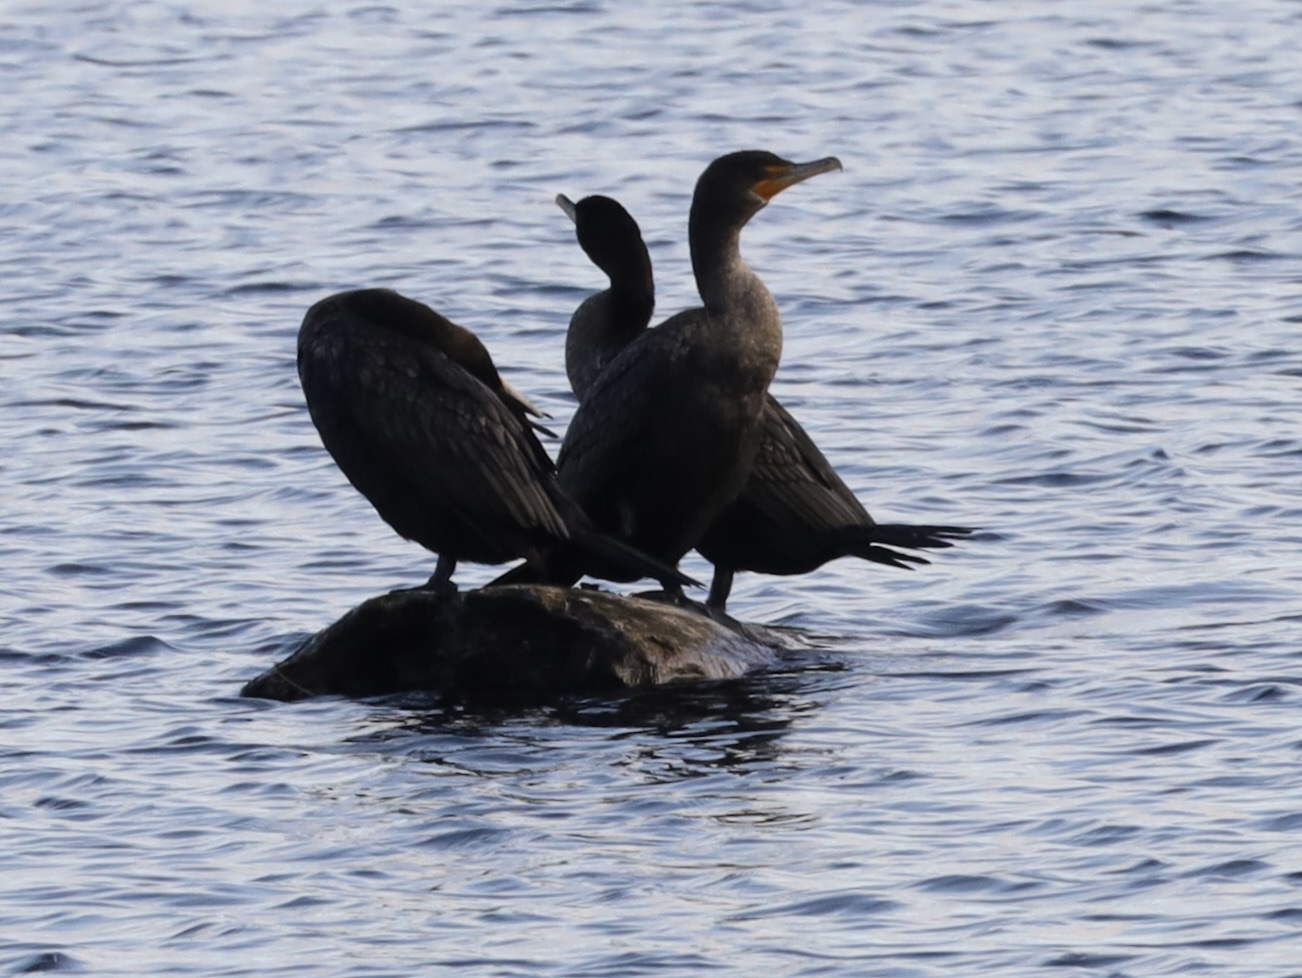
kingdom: Animalia
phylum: Chordata
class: Aves
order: Suliformes
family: Phalacrocoracidae
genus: Phalacrocorax
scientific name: Phalacrocorax auritus
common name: Double-crested cormorant
